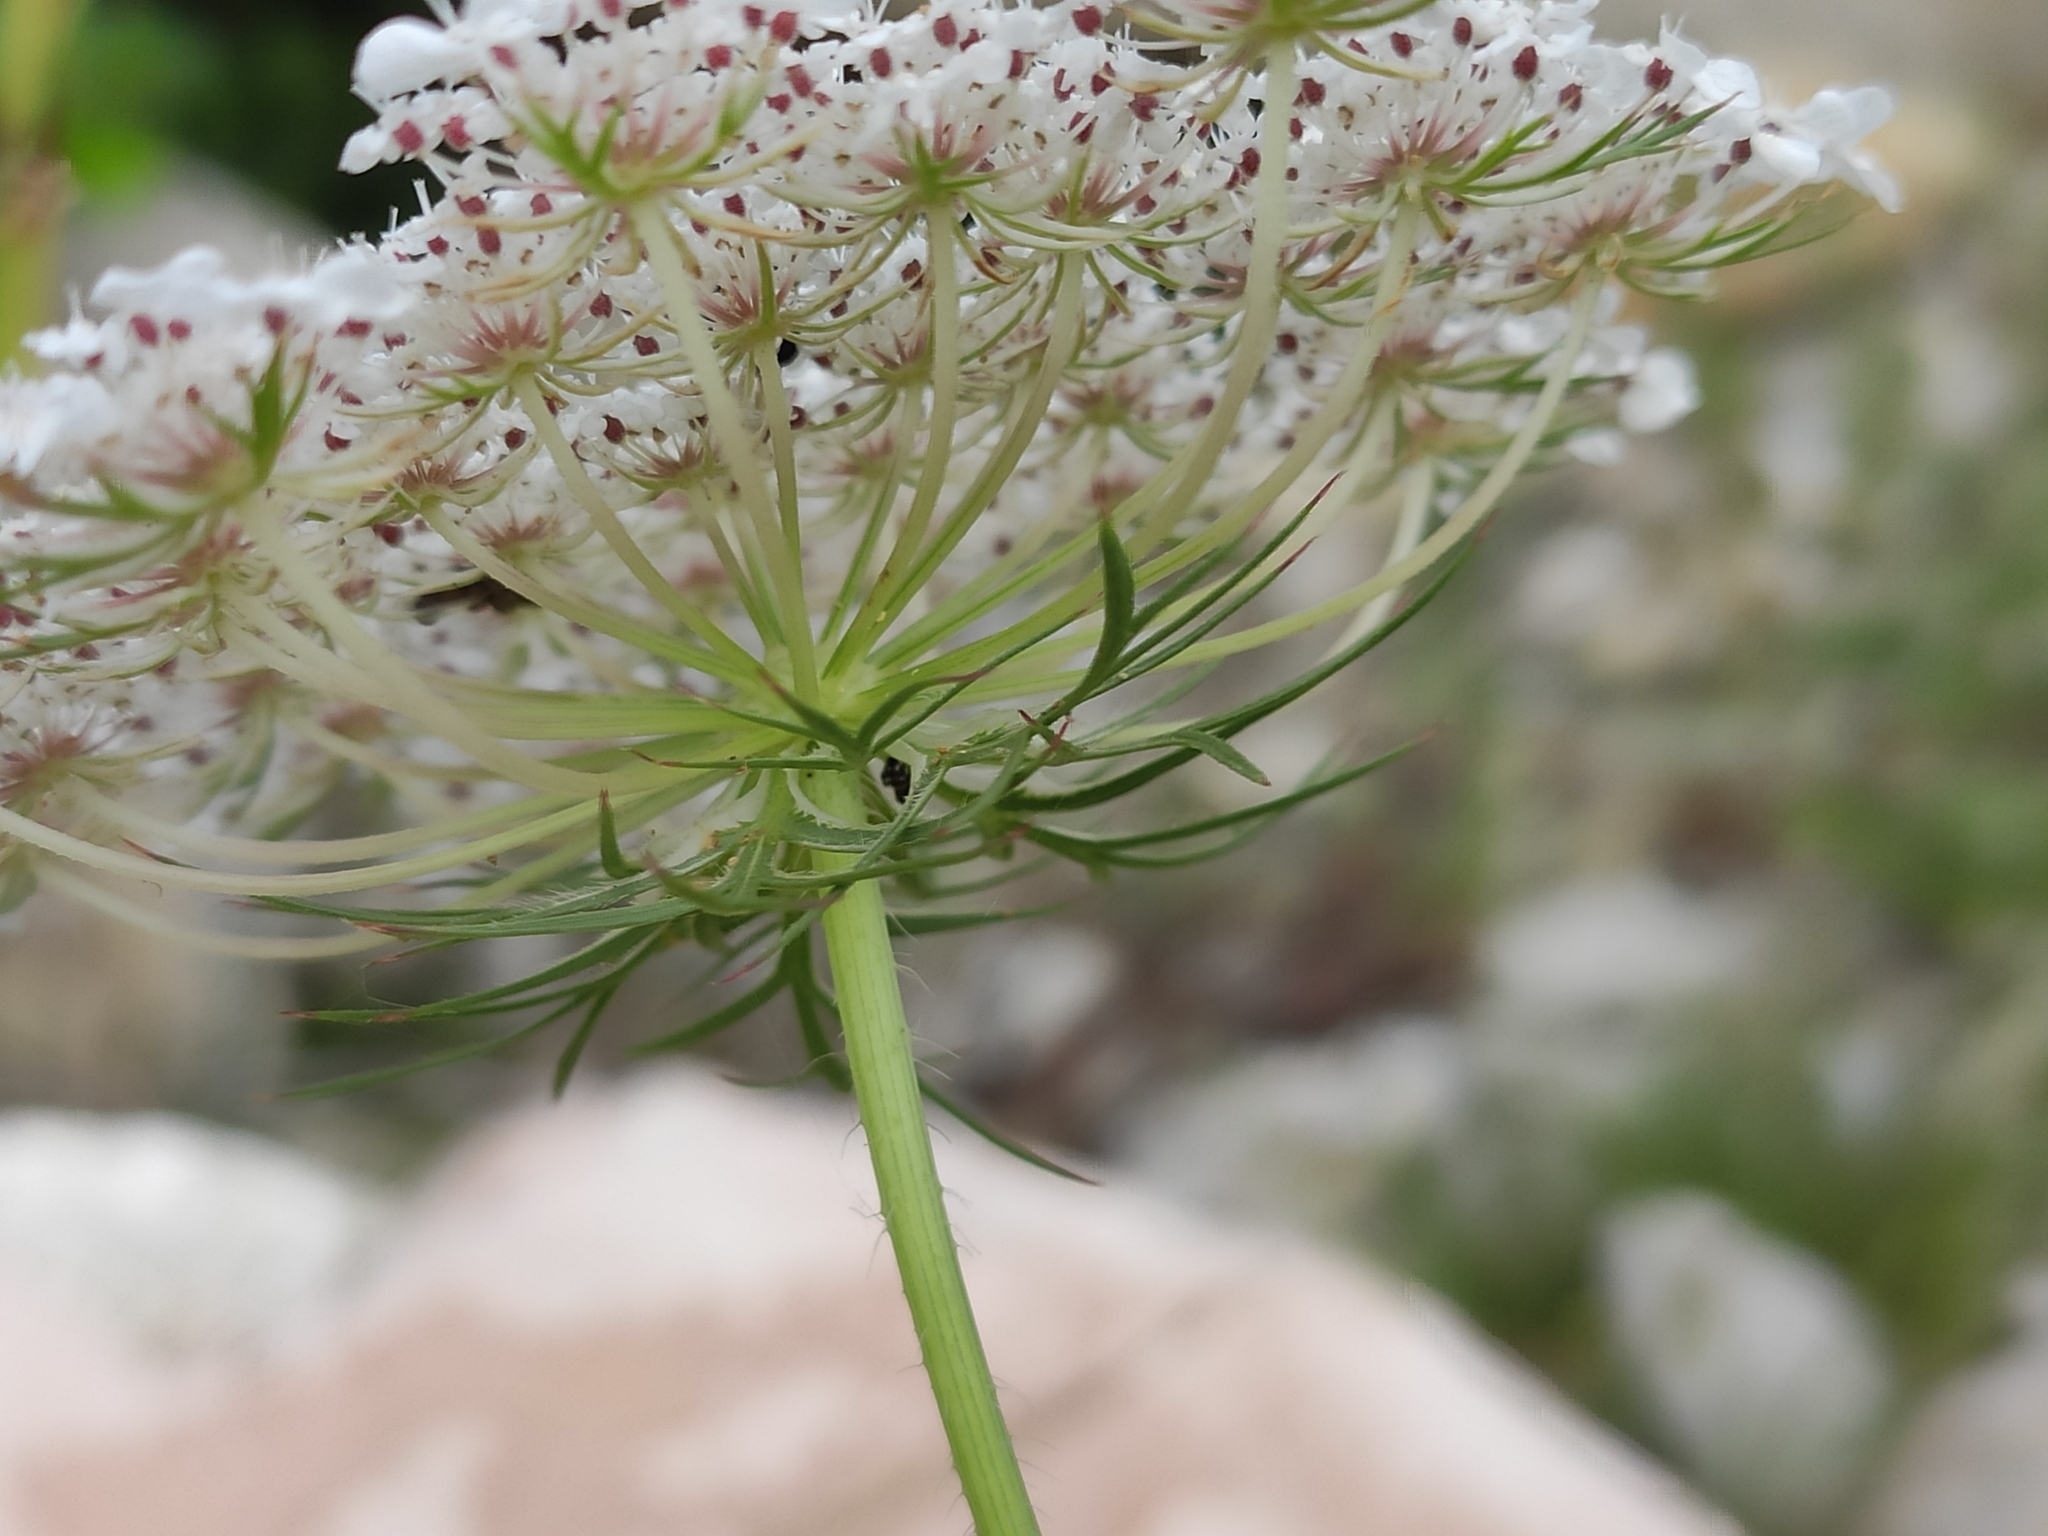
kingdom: Plantae
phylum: Tracheophyta
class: Magnoliopsida
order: Apiales
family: Apiaceae
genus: Daucus
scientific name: Daucus carota
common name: Wild carrot
